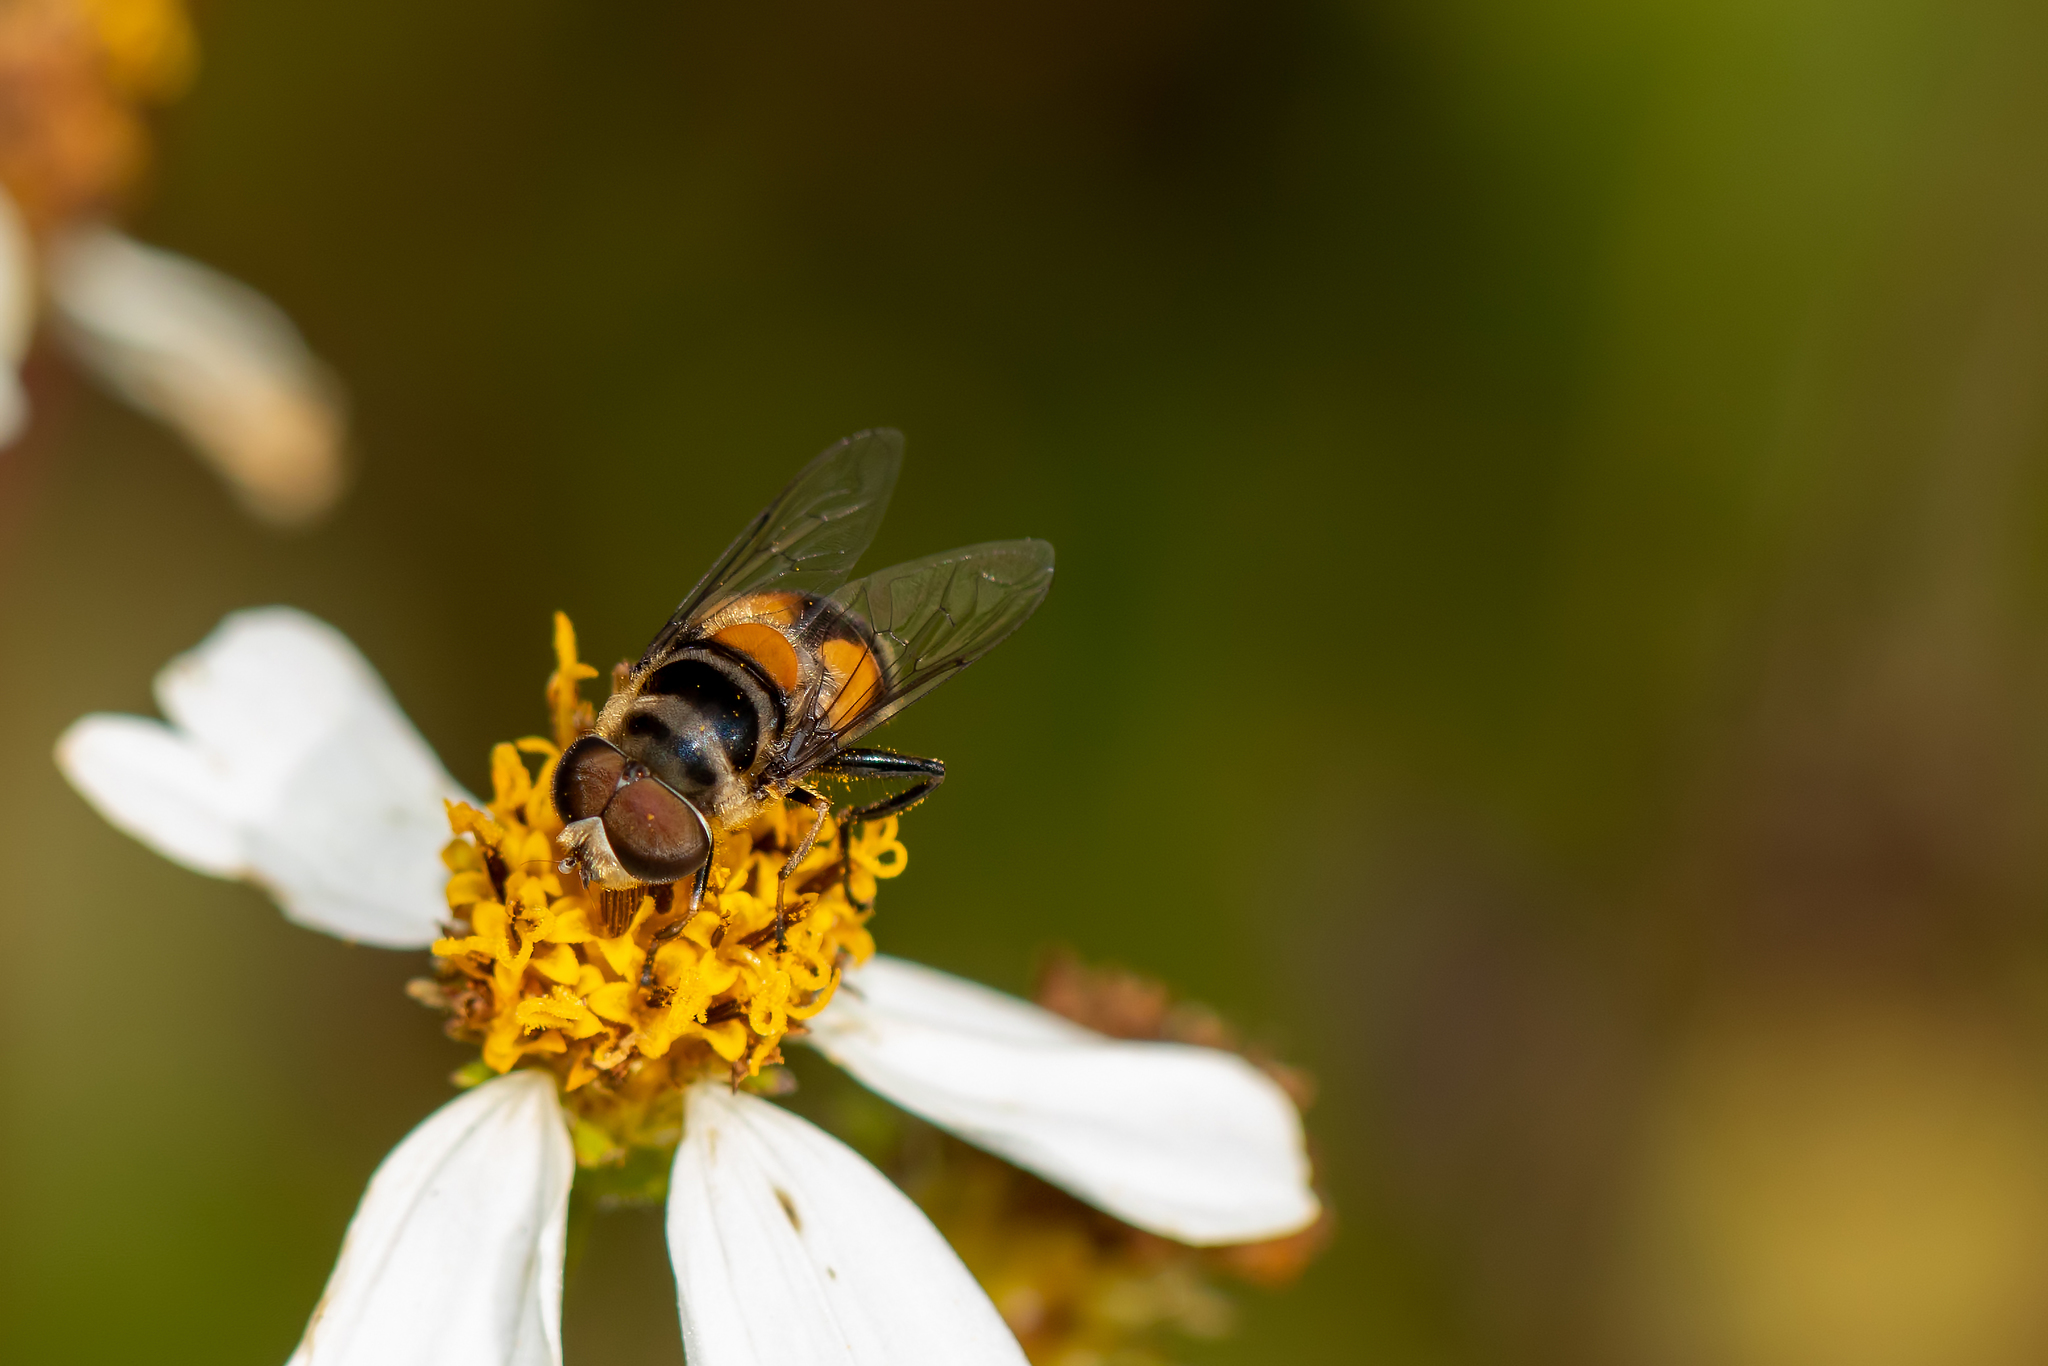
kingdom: Animalia
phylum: Arthropoda
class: Insecta
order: Diptera
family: Syrphidae
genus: Palpada
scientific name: Palpada agrorum
